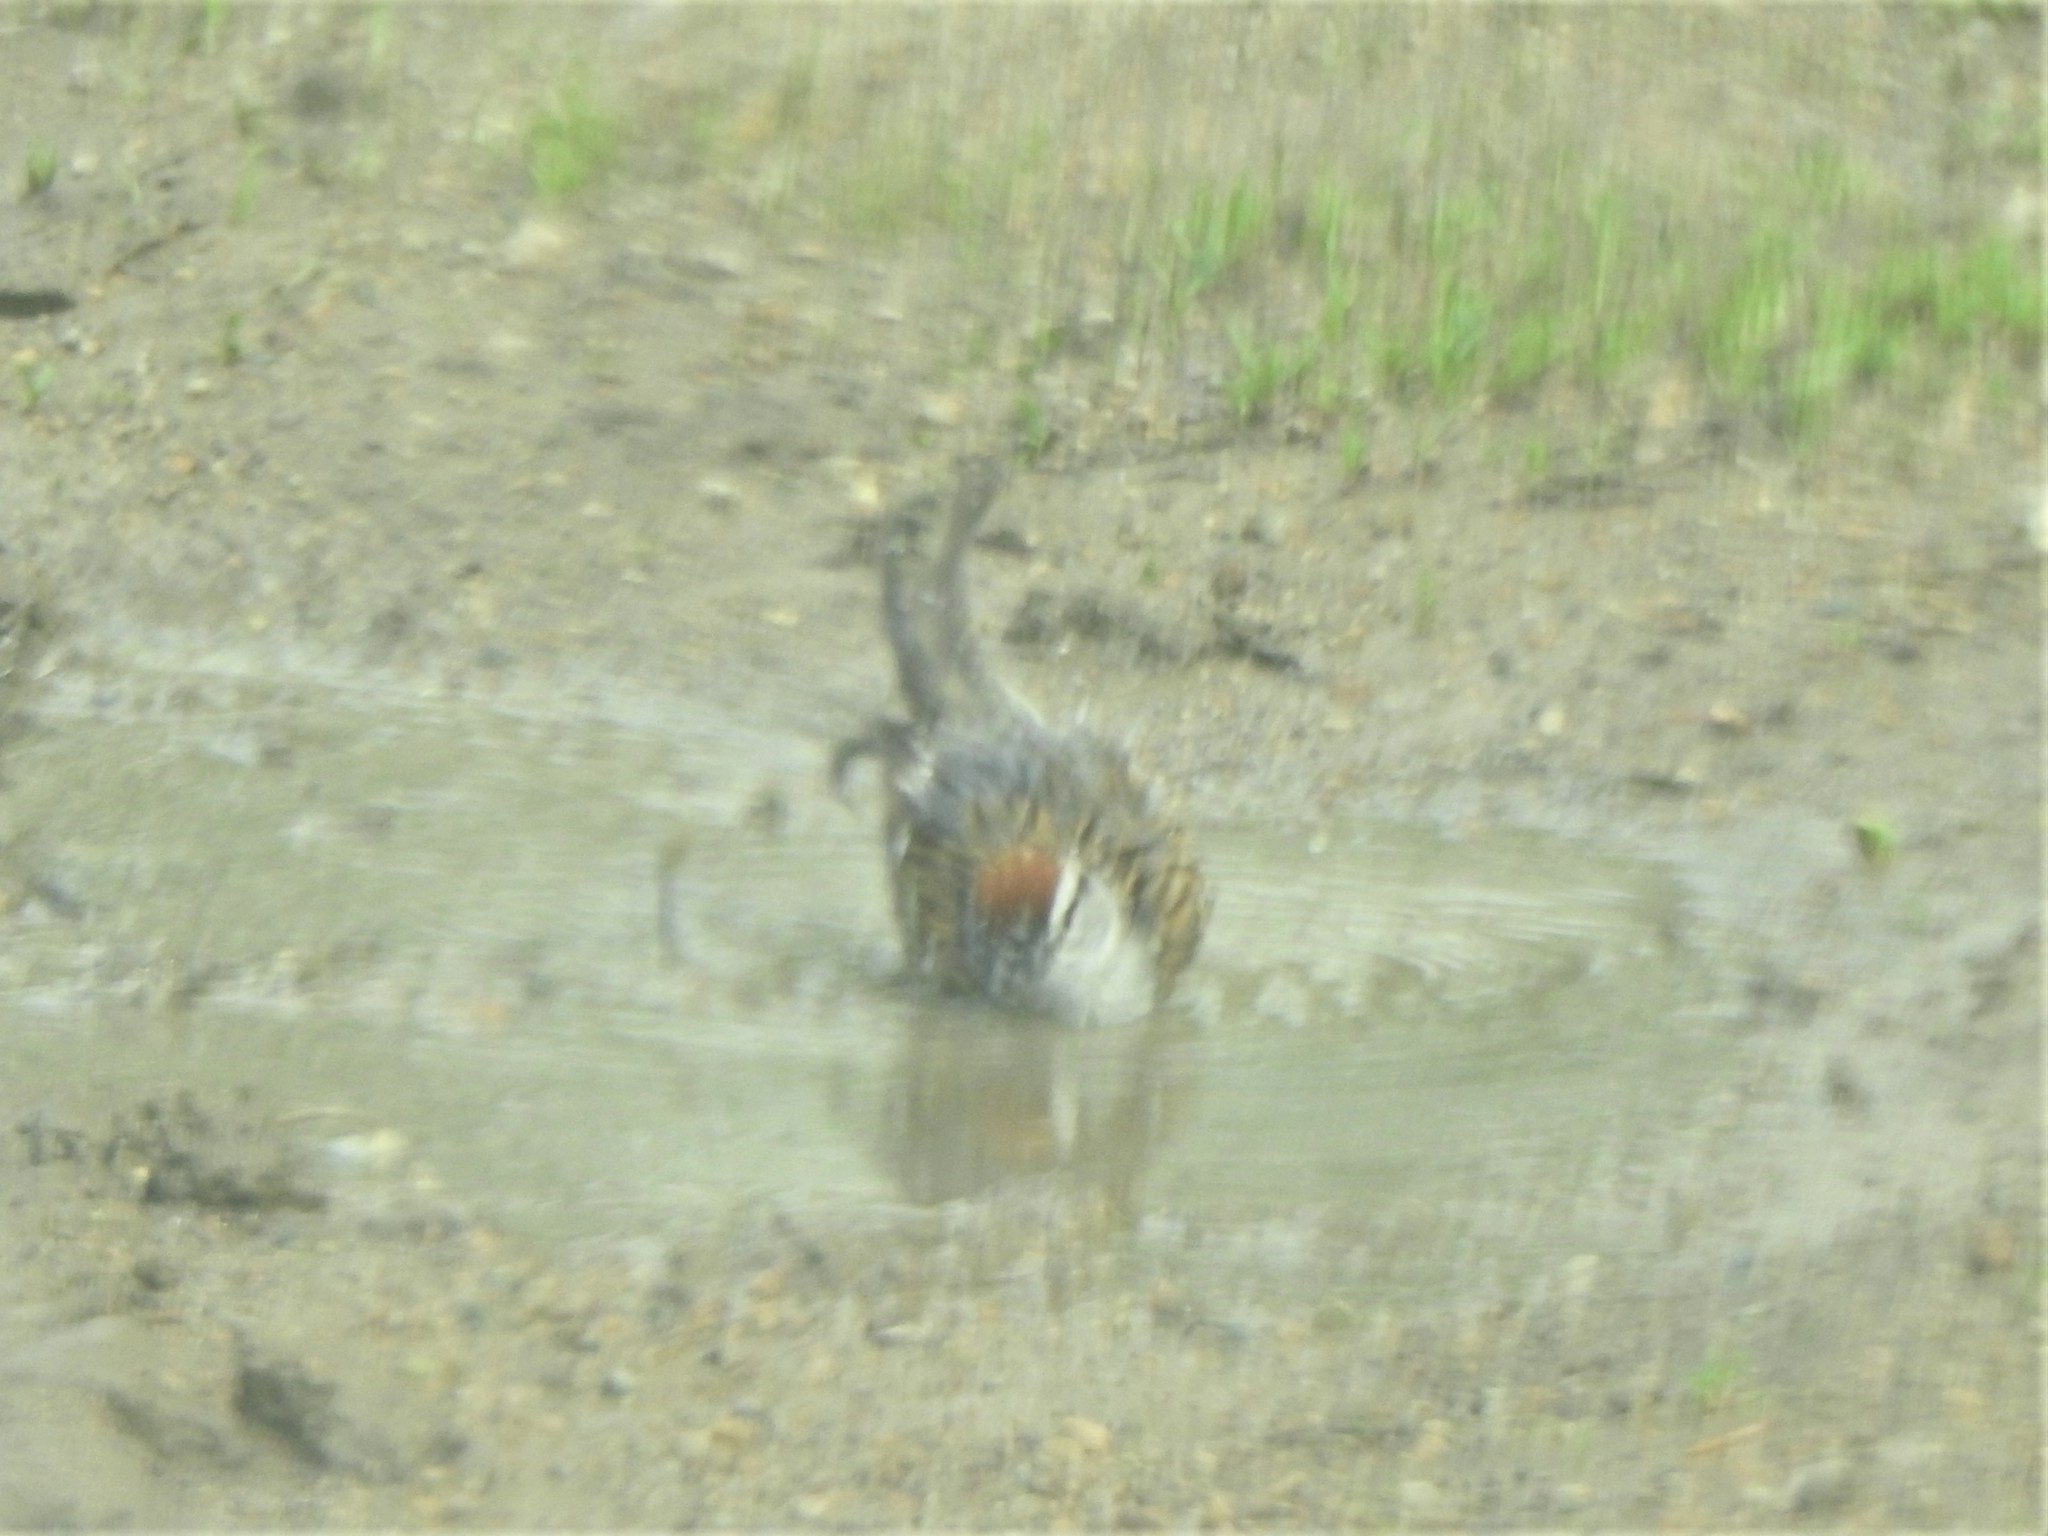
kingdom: Animalia
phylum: Chordata
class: Aves
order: Passeriformes
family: Passerellidae
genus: Spizella
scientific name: Spizella passerina
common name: Chipping sparrow
